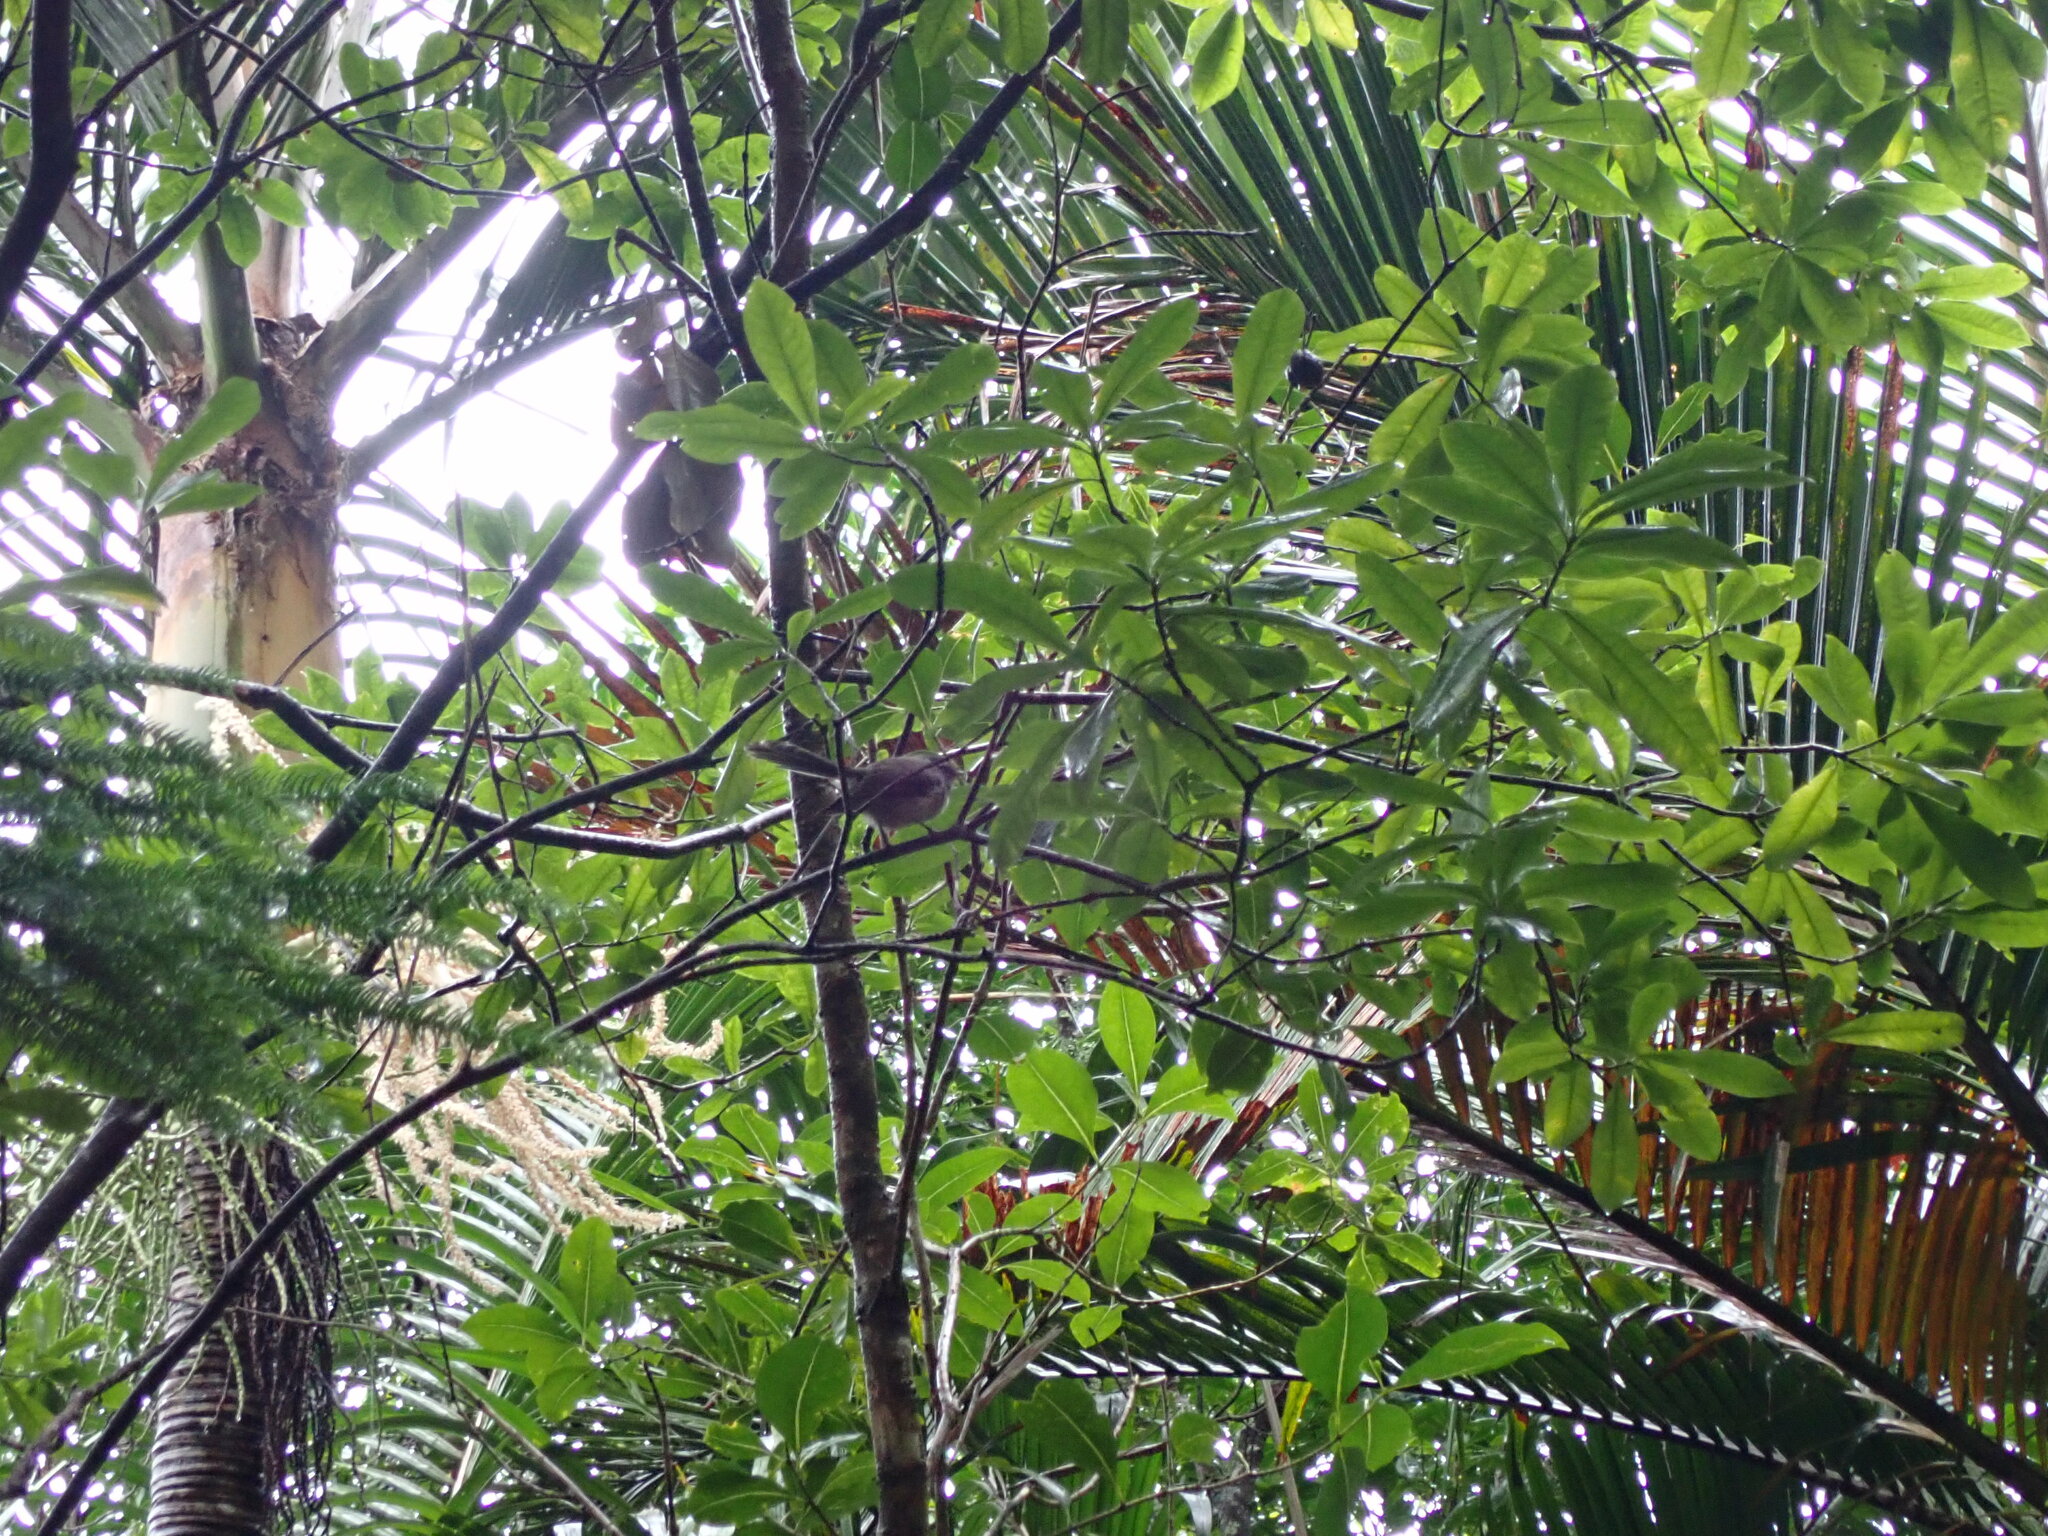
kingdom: Animalia
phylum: Chordata
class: Aves
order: Passeriformes
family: Rhipiduridae
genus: Rhipidura
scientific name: Rhipidura albiscapa
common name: Grey fantail
